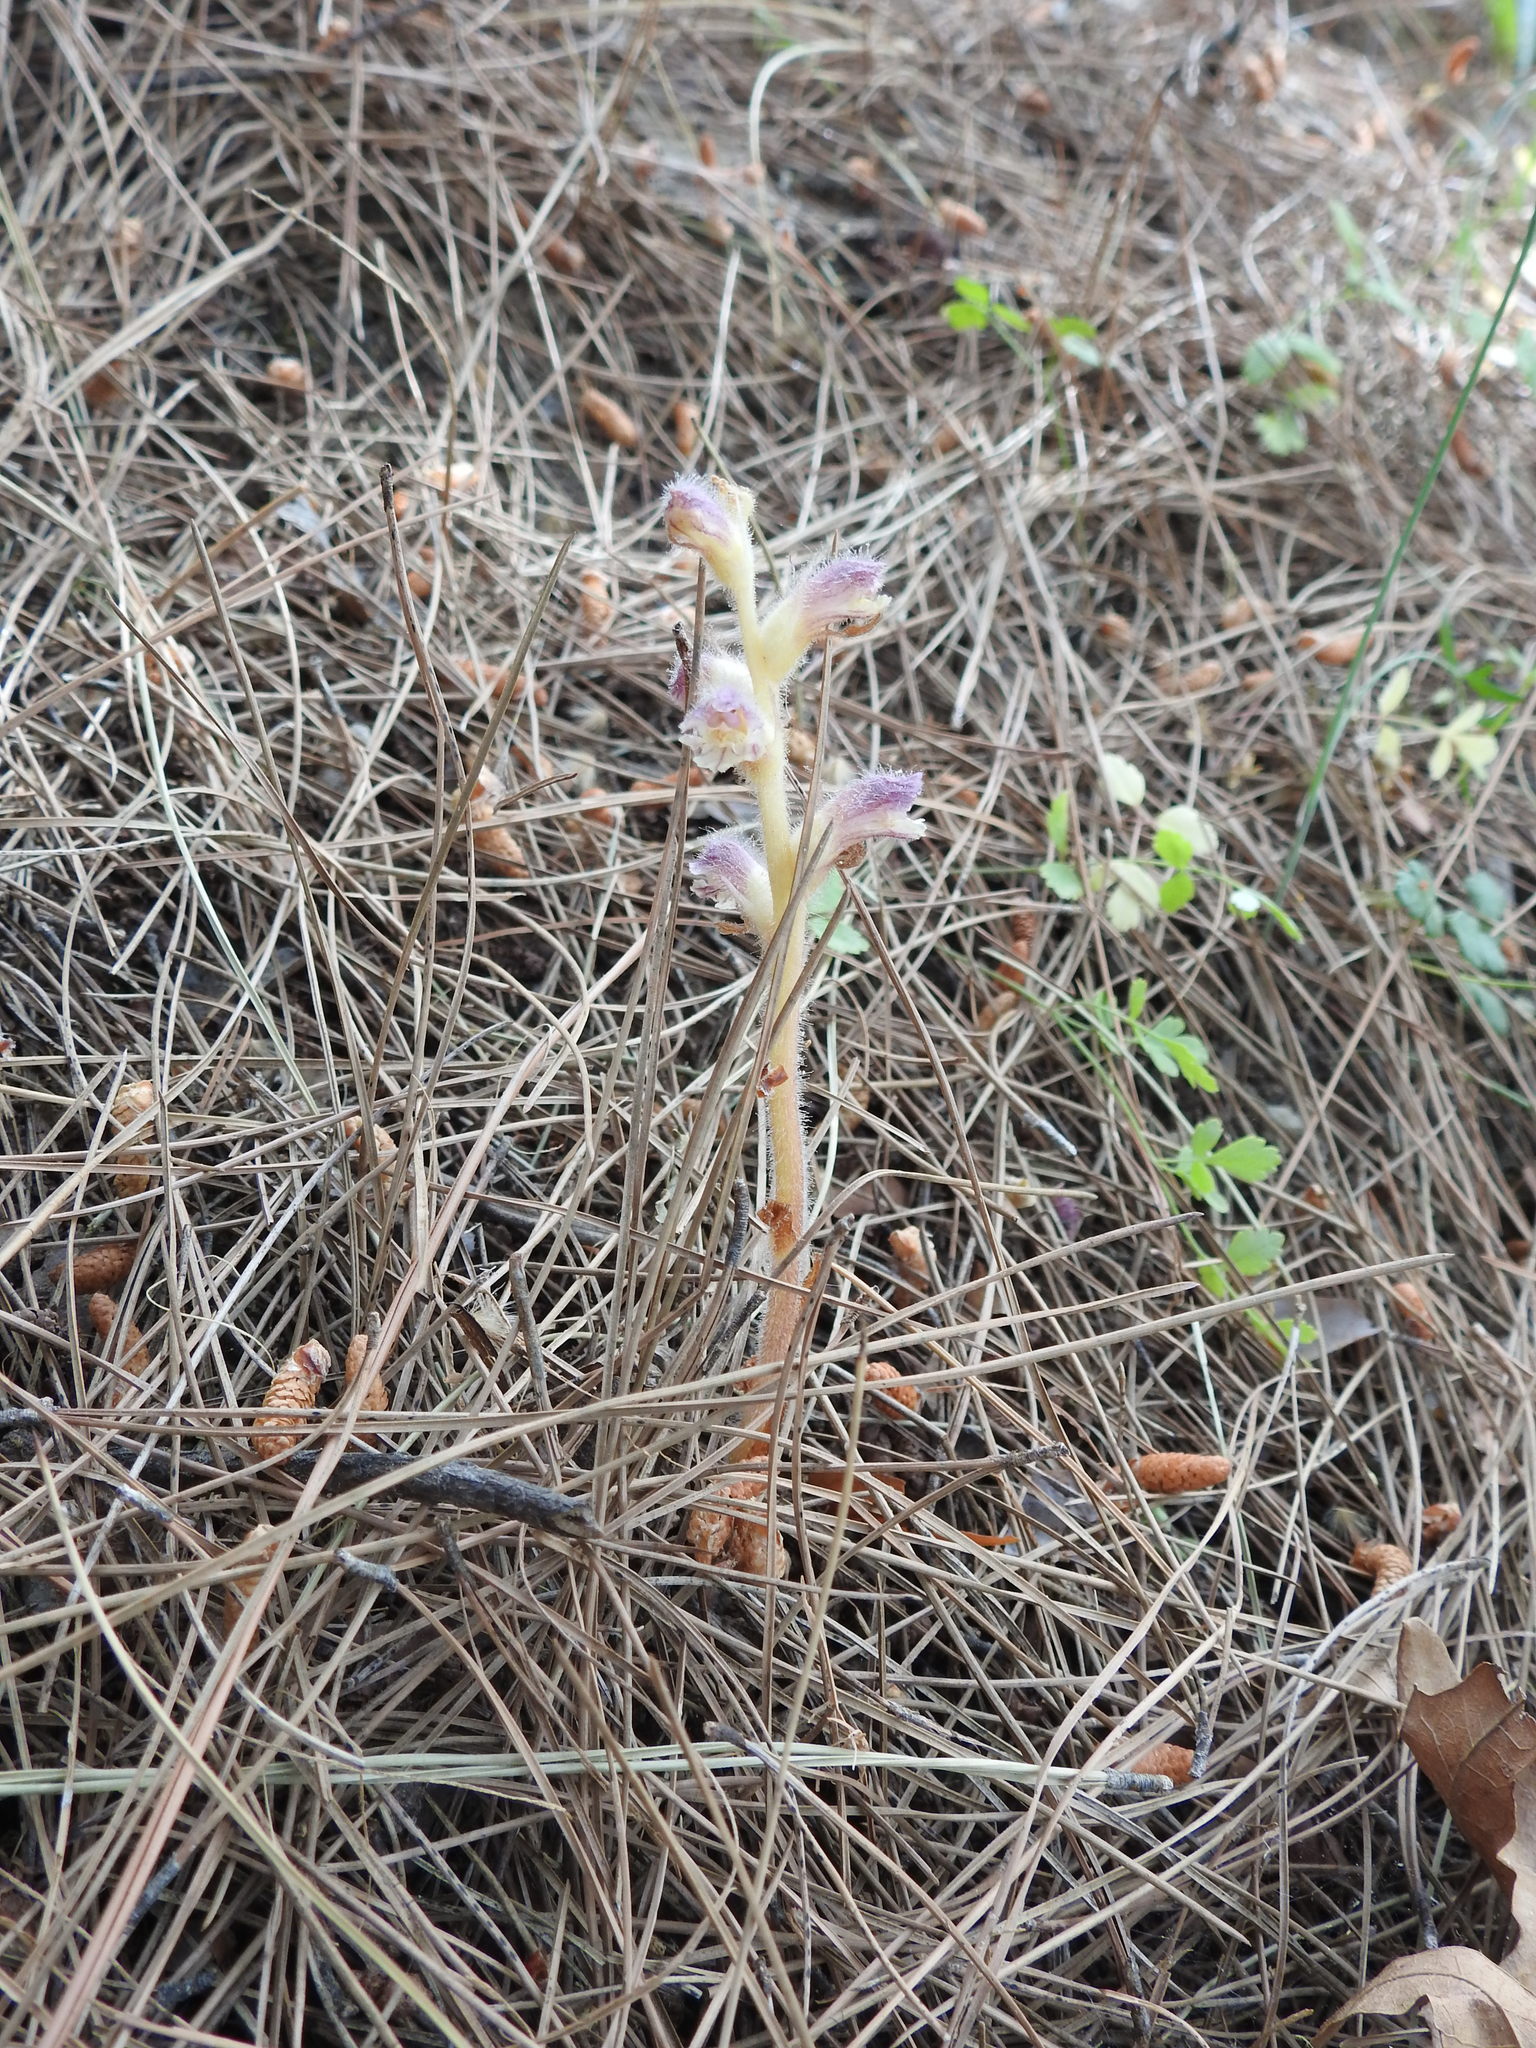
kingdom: Plantae
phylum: Tracheophyta
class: Magnoliopsida
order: Lamiales
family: Orobanchaceae
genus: Orobanche
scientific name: Orobanche pubescens
